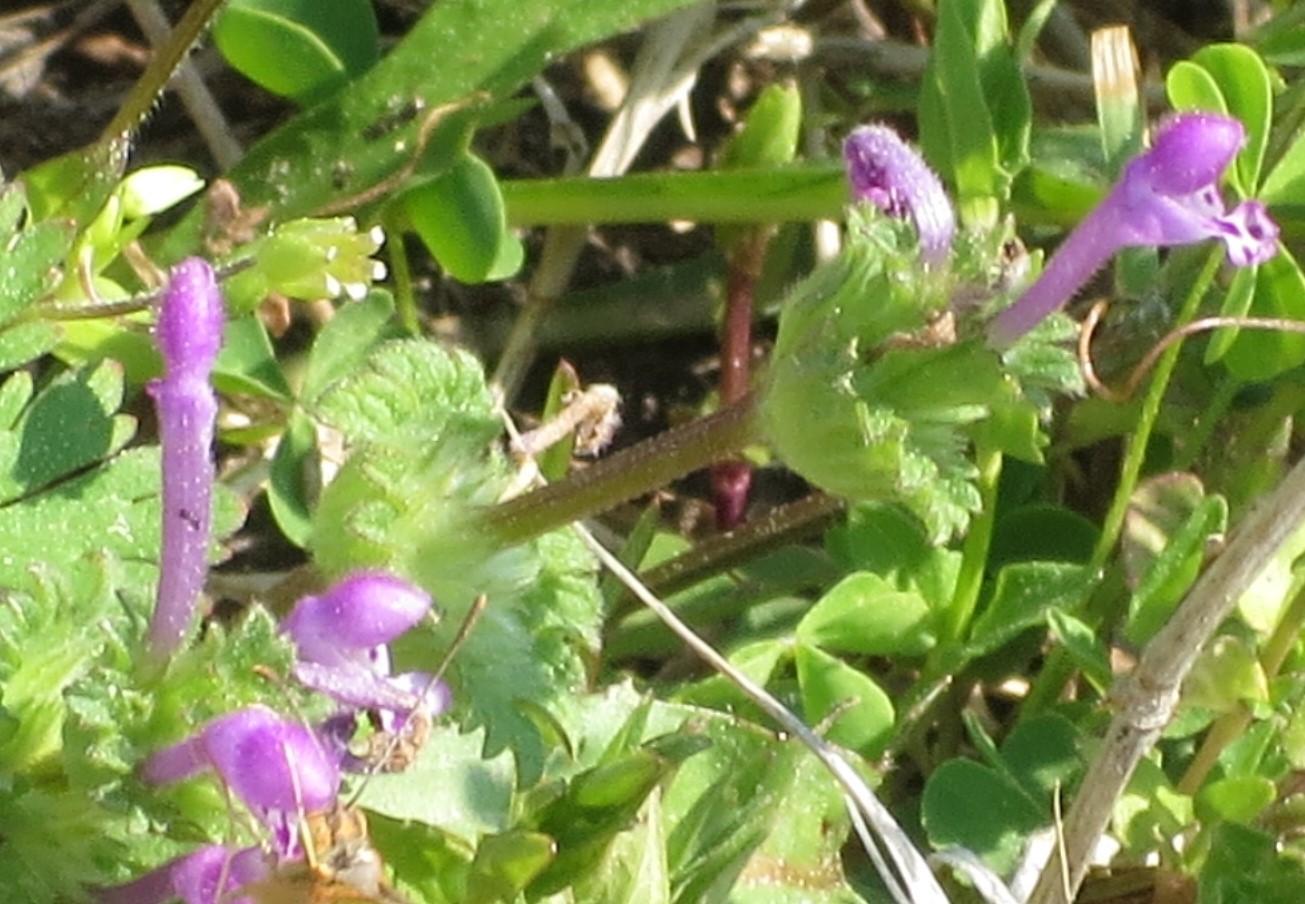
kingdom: Plantae
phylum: Tracheophyta
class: Magnoliopsida
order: Lamiales
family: Lamiaceae
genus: Lamium
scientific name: Lamium amplexicaule
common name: Henbit dead-nettle
